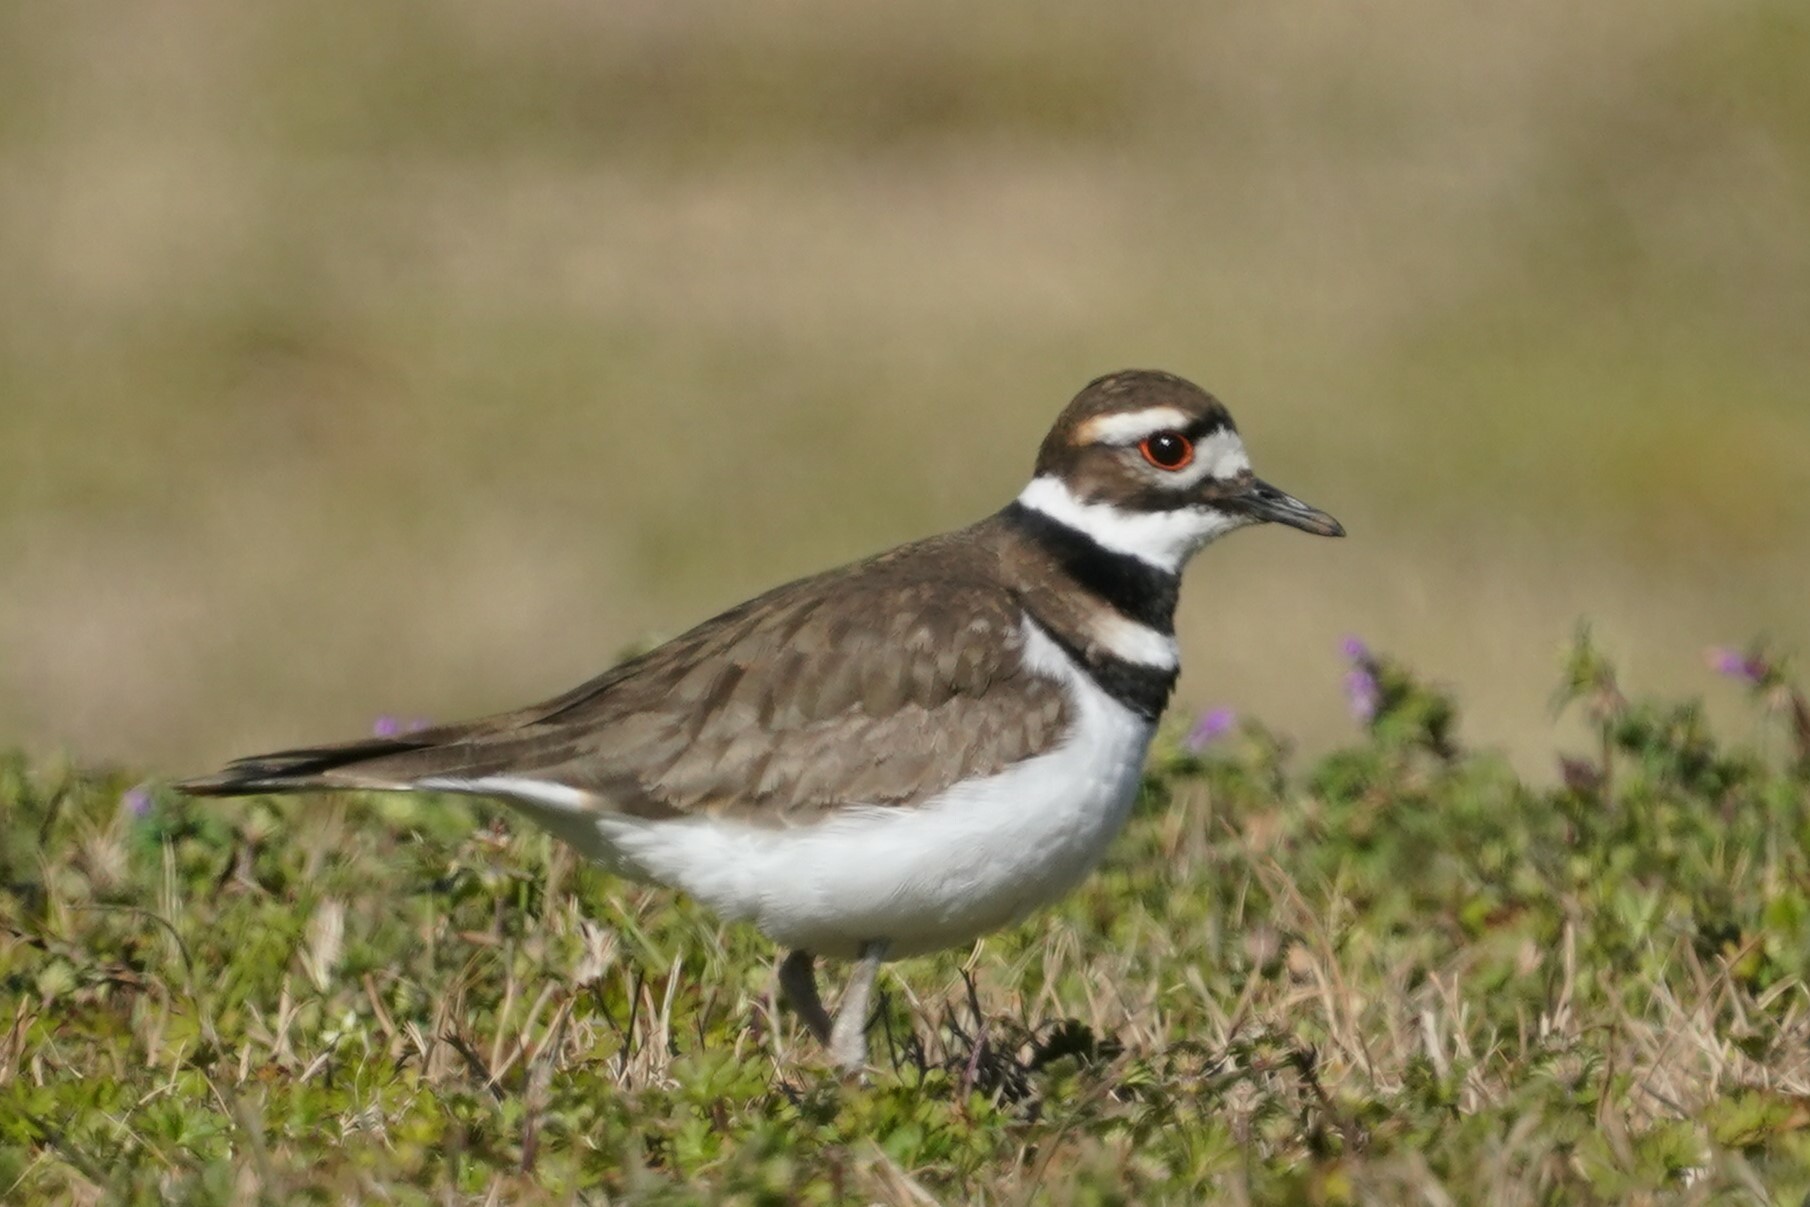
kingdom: Animalia
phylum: Chordata
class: Aves
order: Charadriiformes
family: Charadriidae
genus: Charadrius
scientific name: Charadrius vociferus
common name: Killdeer
